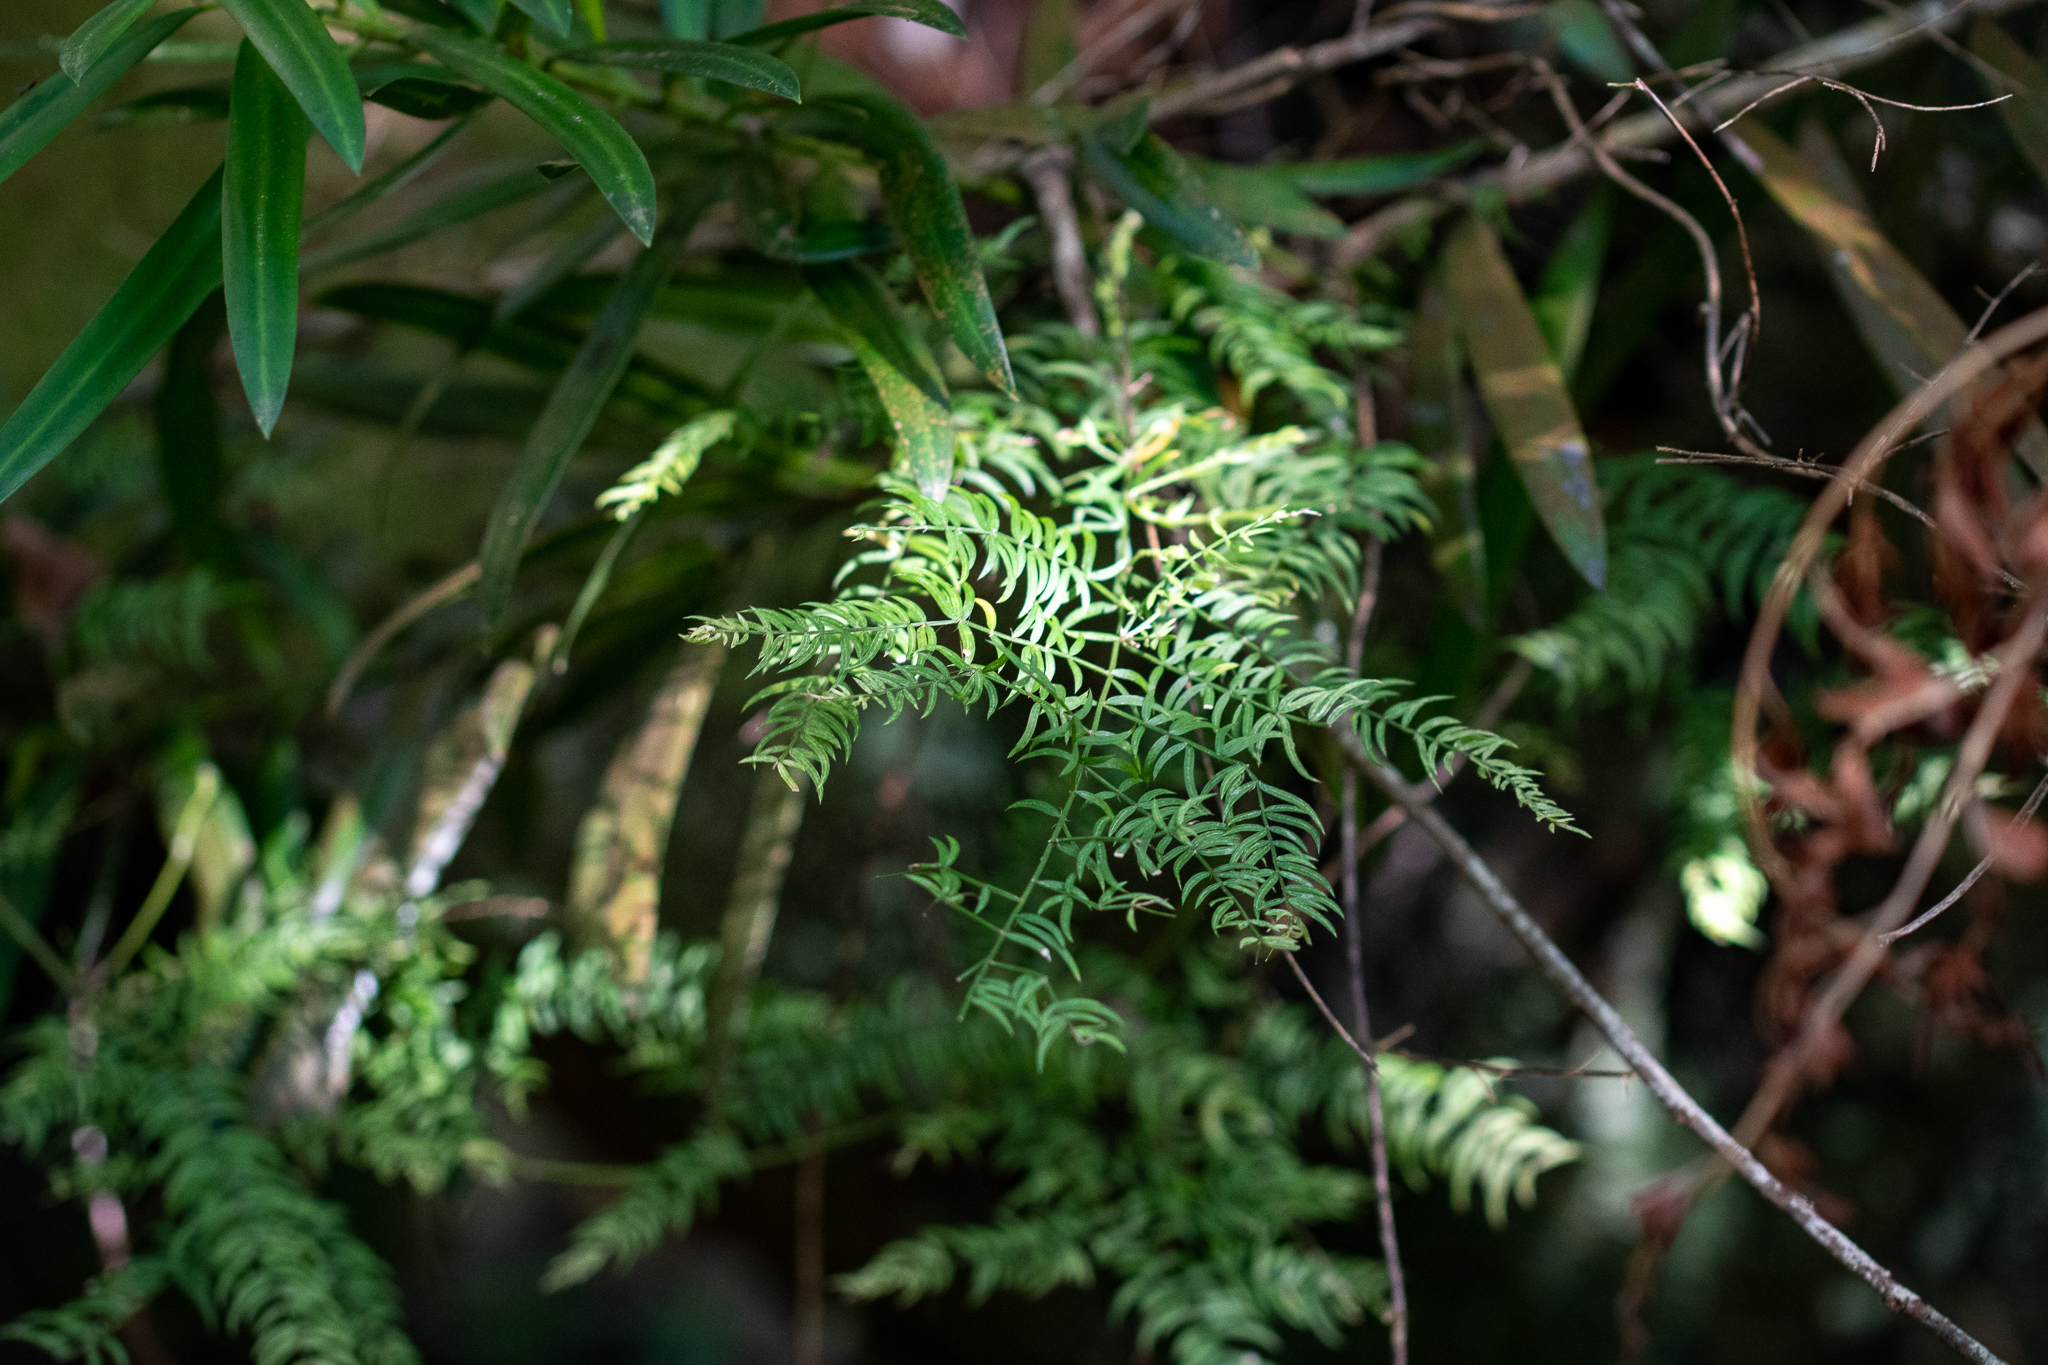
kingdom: Plantae
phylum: Tracheophyta
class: Liliopsida
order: Asparagales
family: Asparagaceae
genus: Asparagus
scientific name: Asparagus scandens
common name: Asparagus-fern
